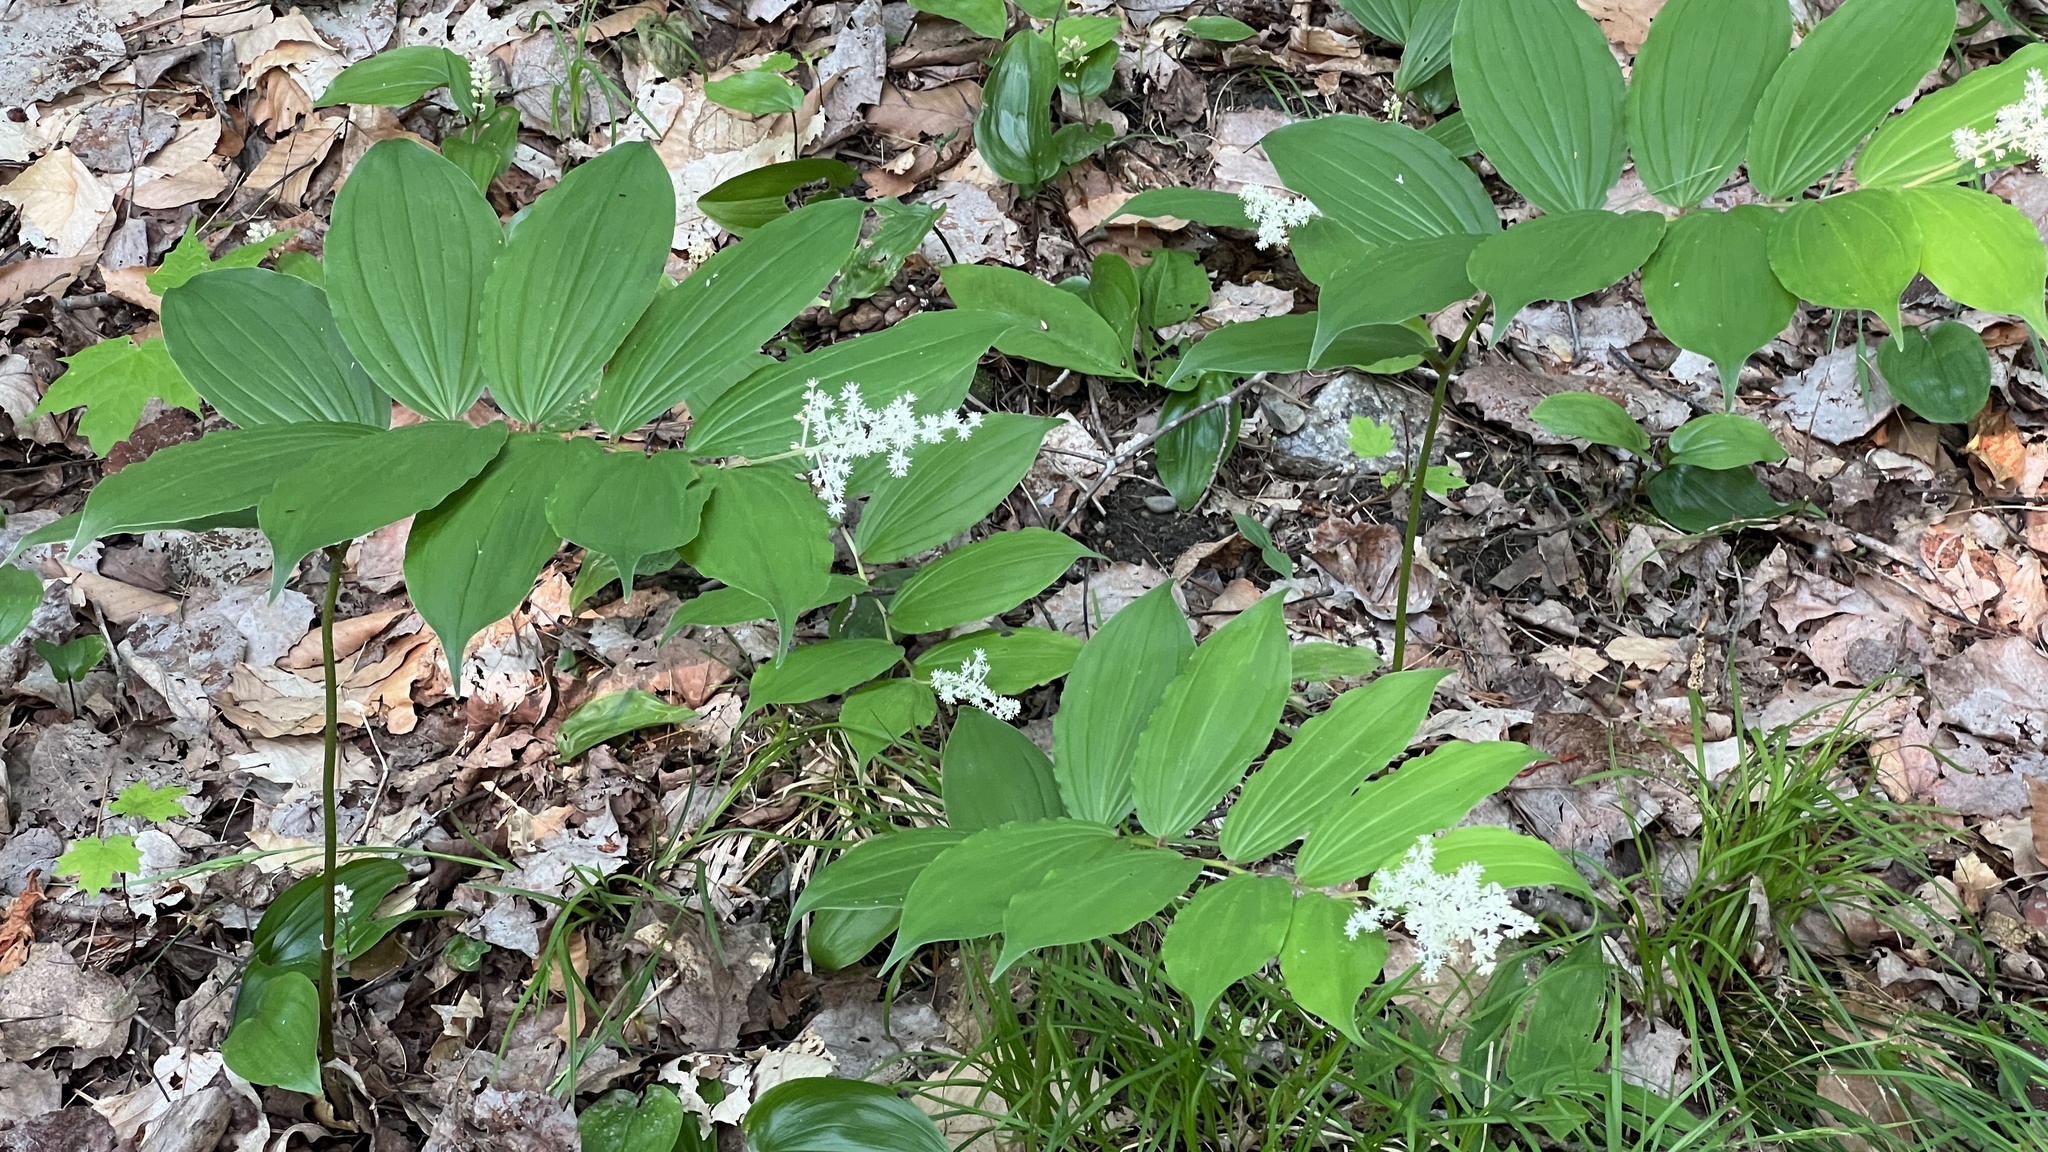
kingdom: Plantae
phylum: Tracheophyta
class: Liliopsida
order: Asparagales
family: Asparagaceae
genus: Maianthemum
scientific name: Maianthemum racemosum
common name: False spikenard
